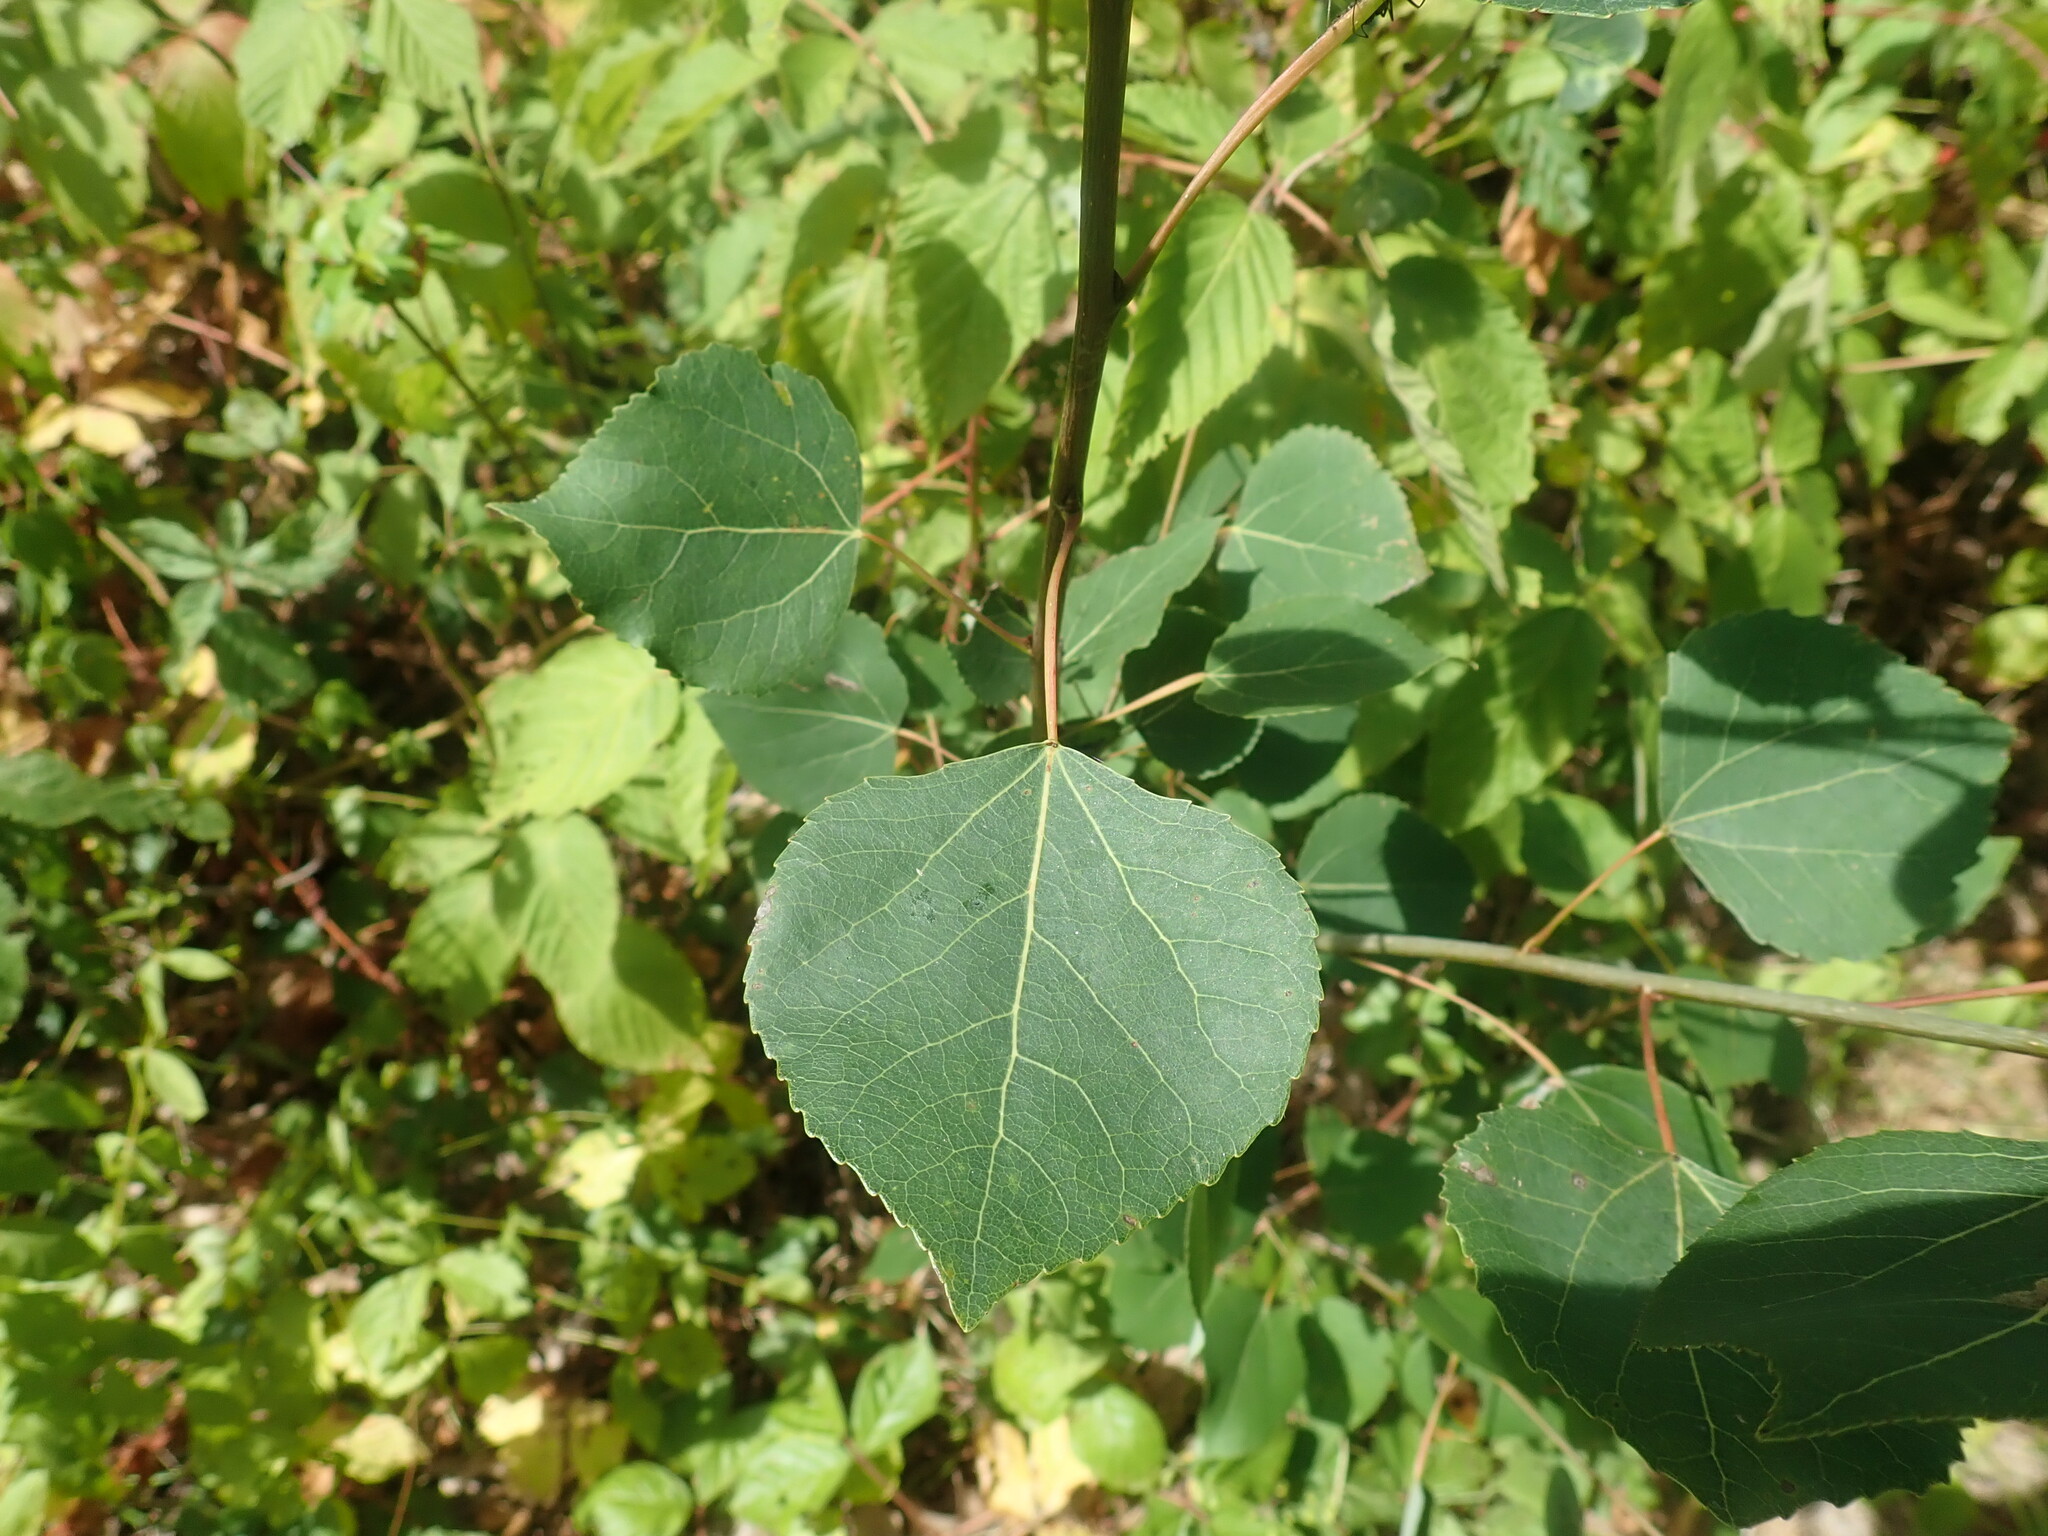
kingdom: Plantae
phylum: Tracheophyta
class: Magnoliopsida
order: Malpighiales
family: Salicaceae
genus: Populus
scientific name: Populus tremuloides
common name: Quaking aspen
